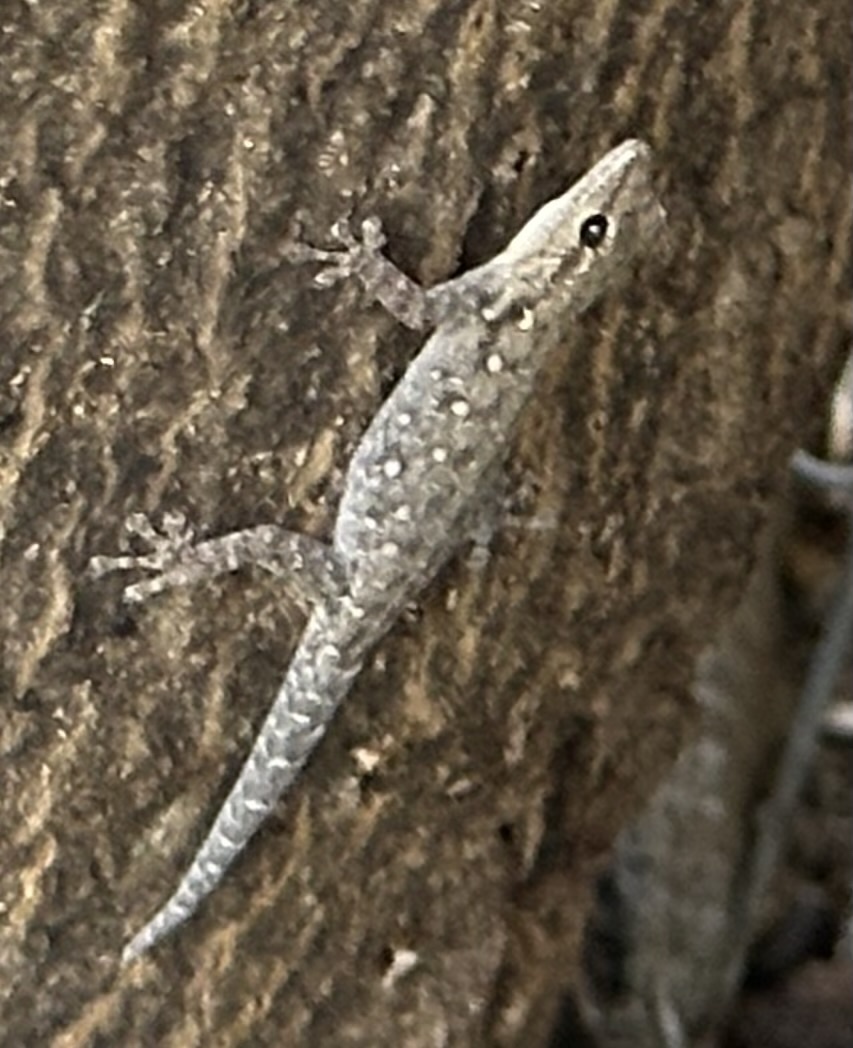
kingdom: Animalia
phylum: Chordata
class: Squamata
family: Gekkonidae
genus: Lygodactylus
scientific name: Lygodactylus chobiensis
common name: Okavango dwarf gecko
